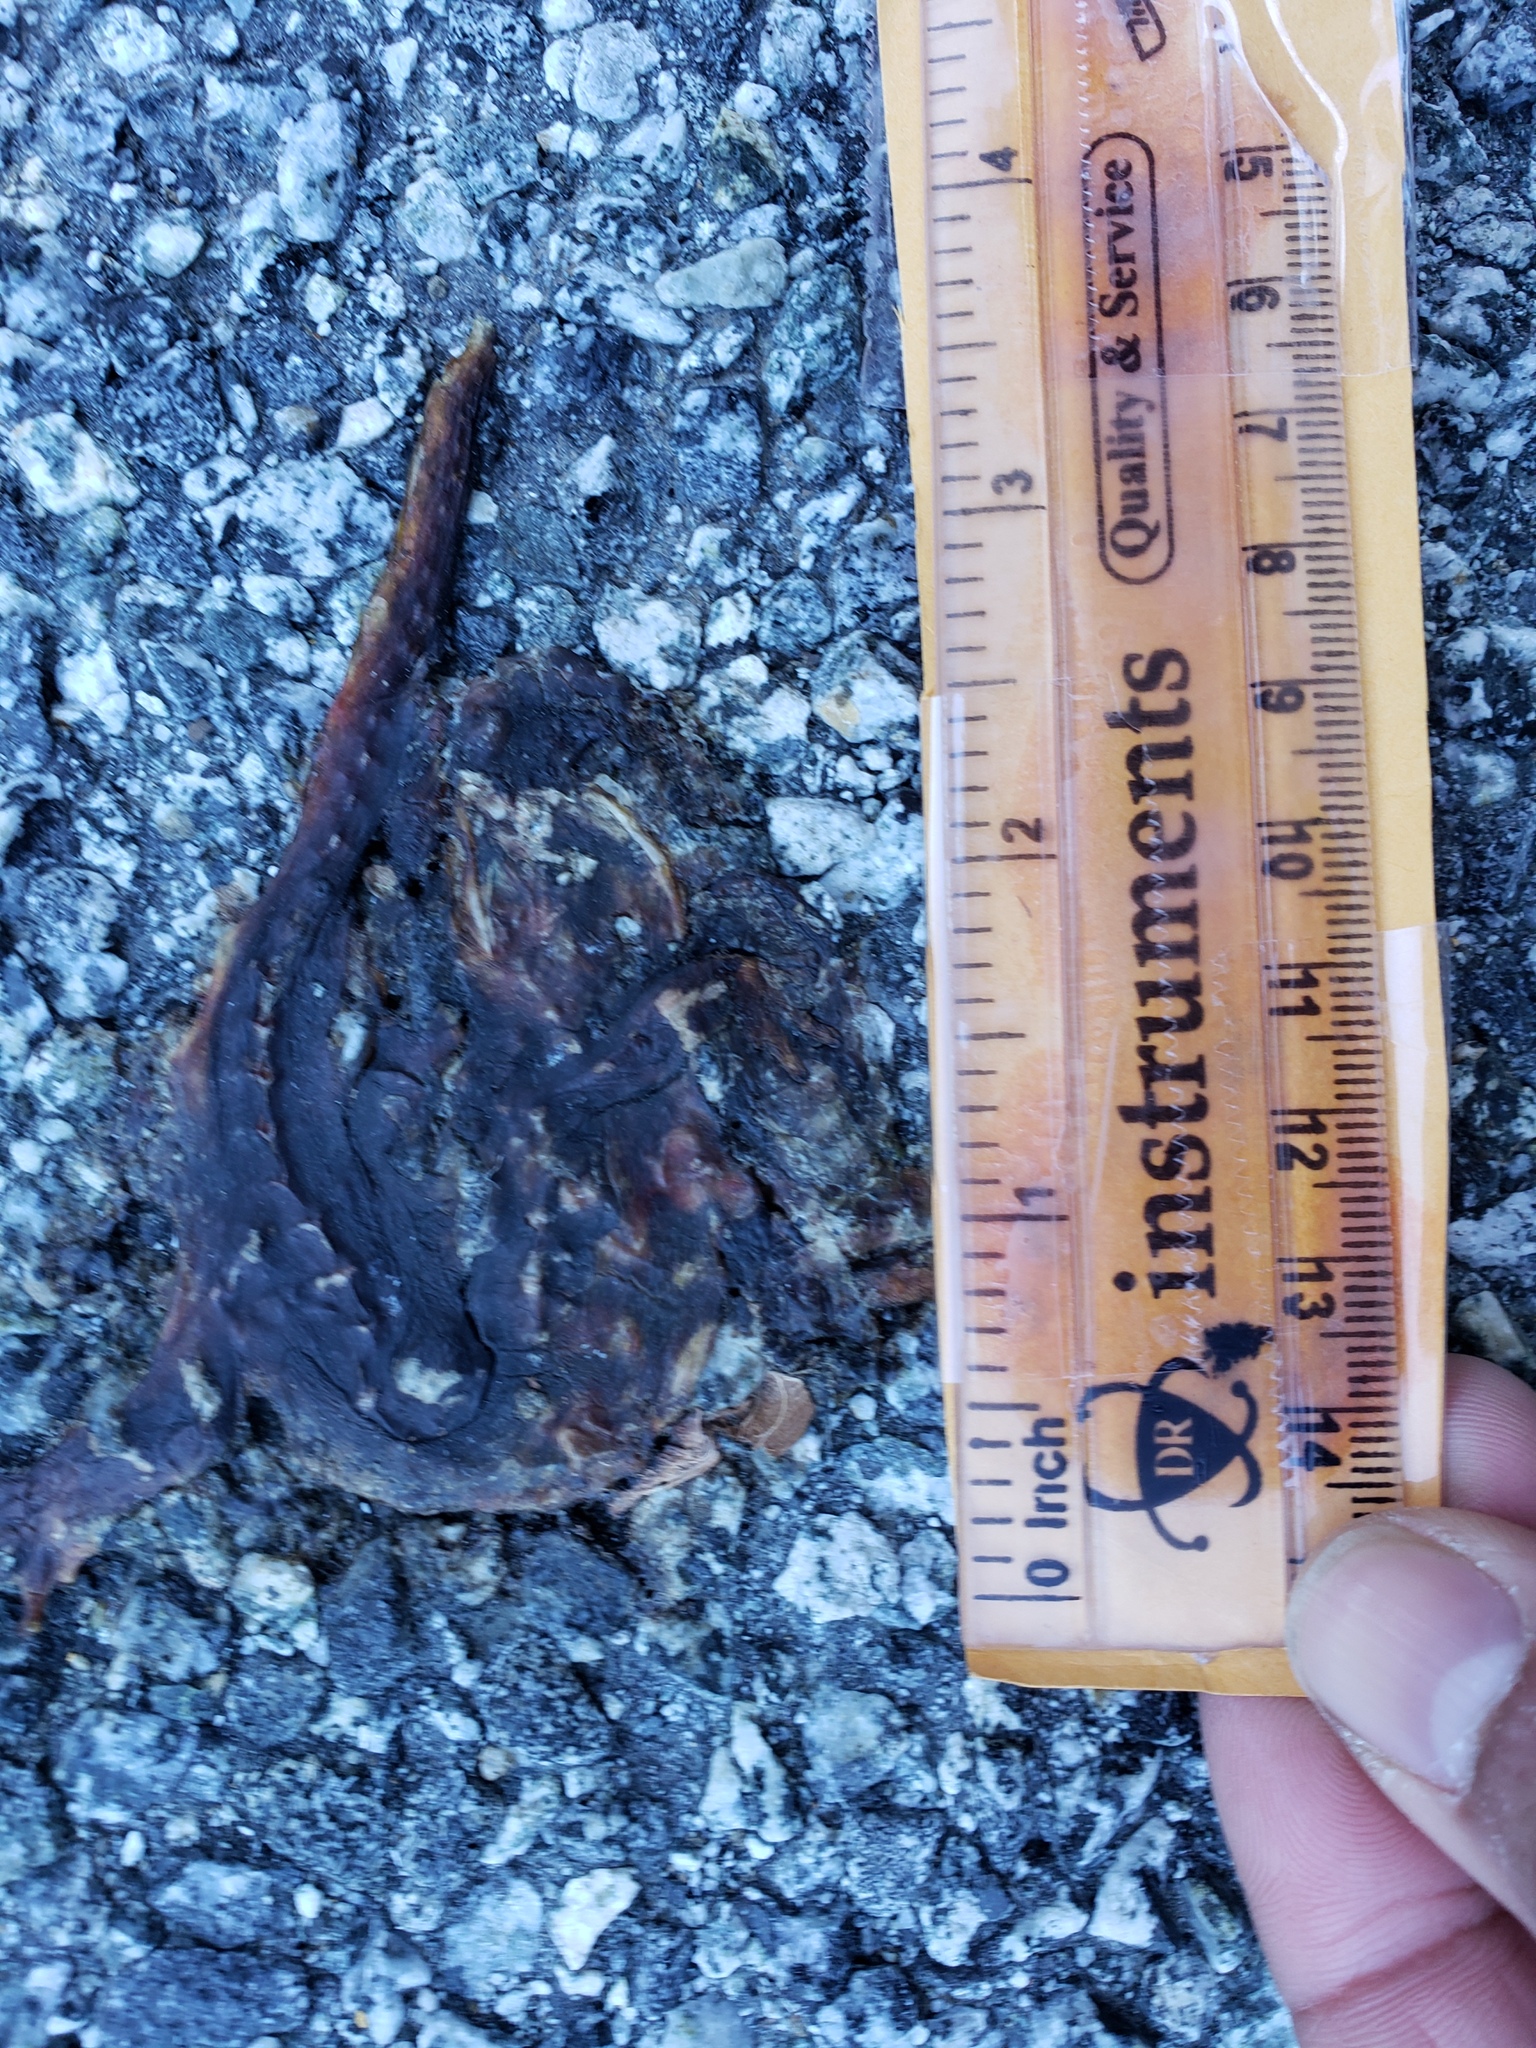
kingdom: Animalia
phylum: Chordata
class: Amphibia
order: Caudata
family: Salamandridae
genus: Taricha
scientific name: Taricha
